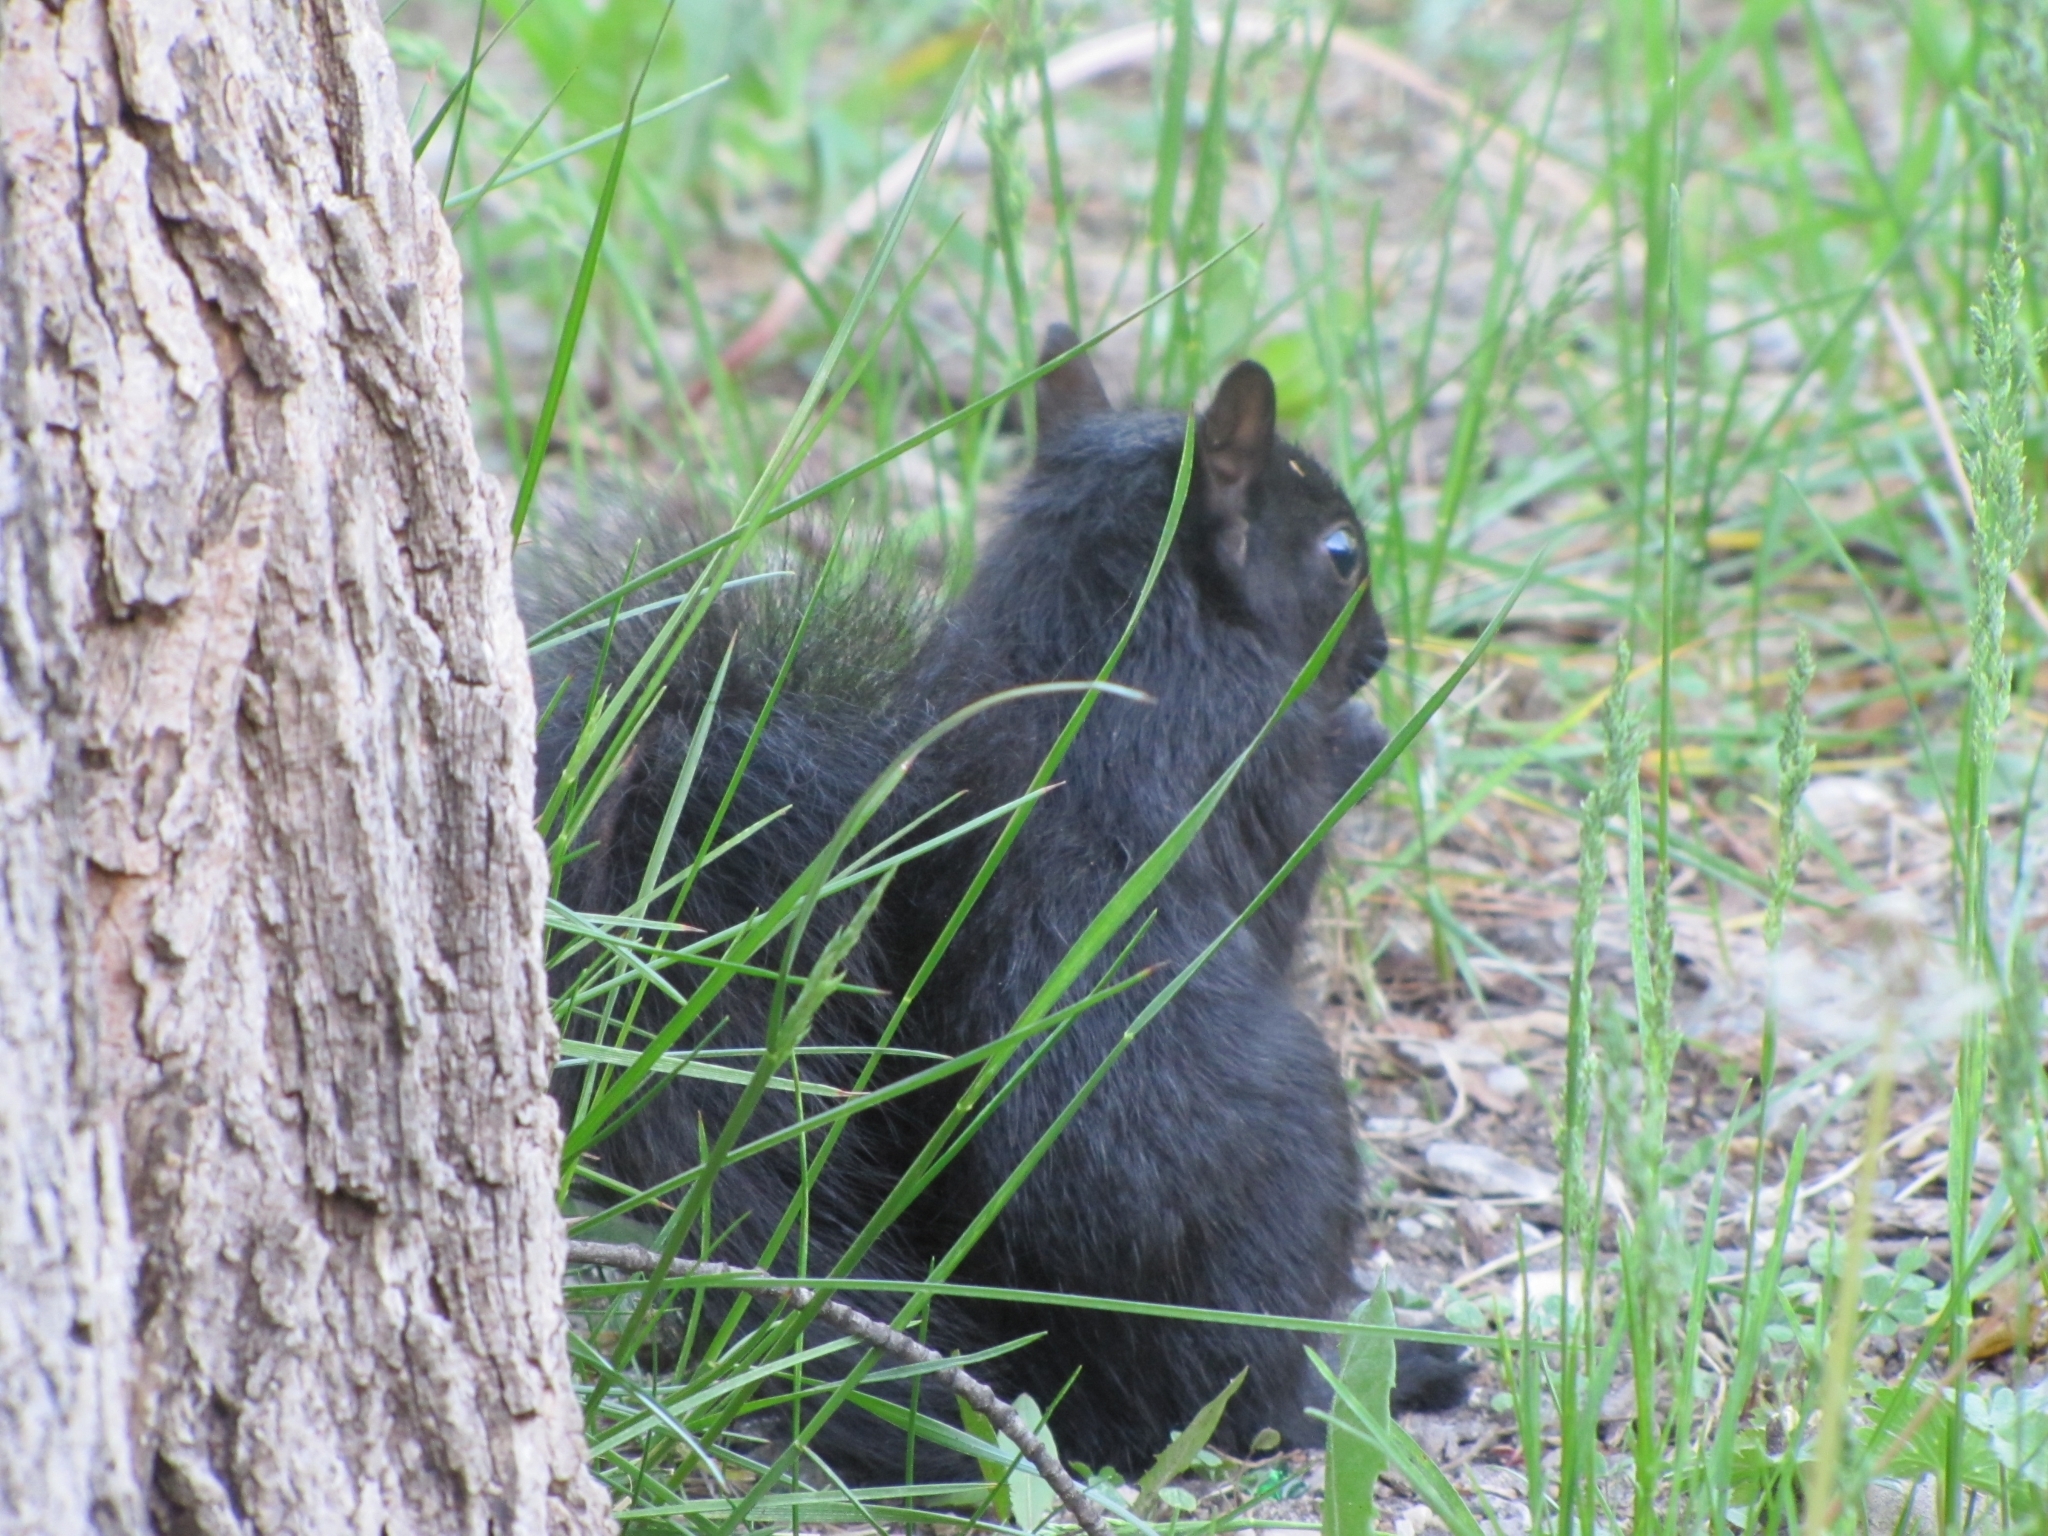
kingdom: Animalia
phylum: Chordata
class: Mammalia
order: Rodentia
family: Sciuridae
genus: Sciurus
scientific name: Sciurus carolinensis
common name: Eastern gray squirrel
